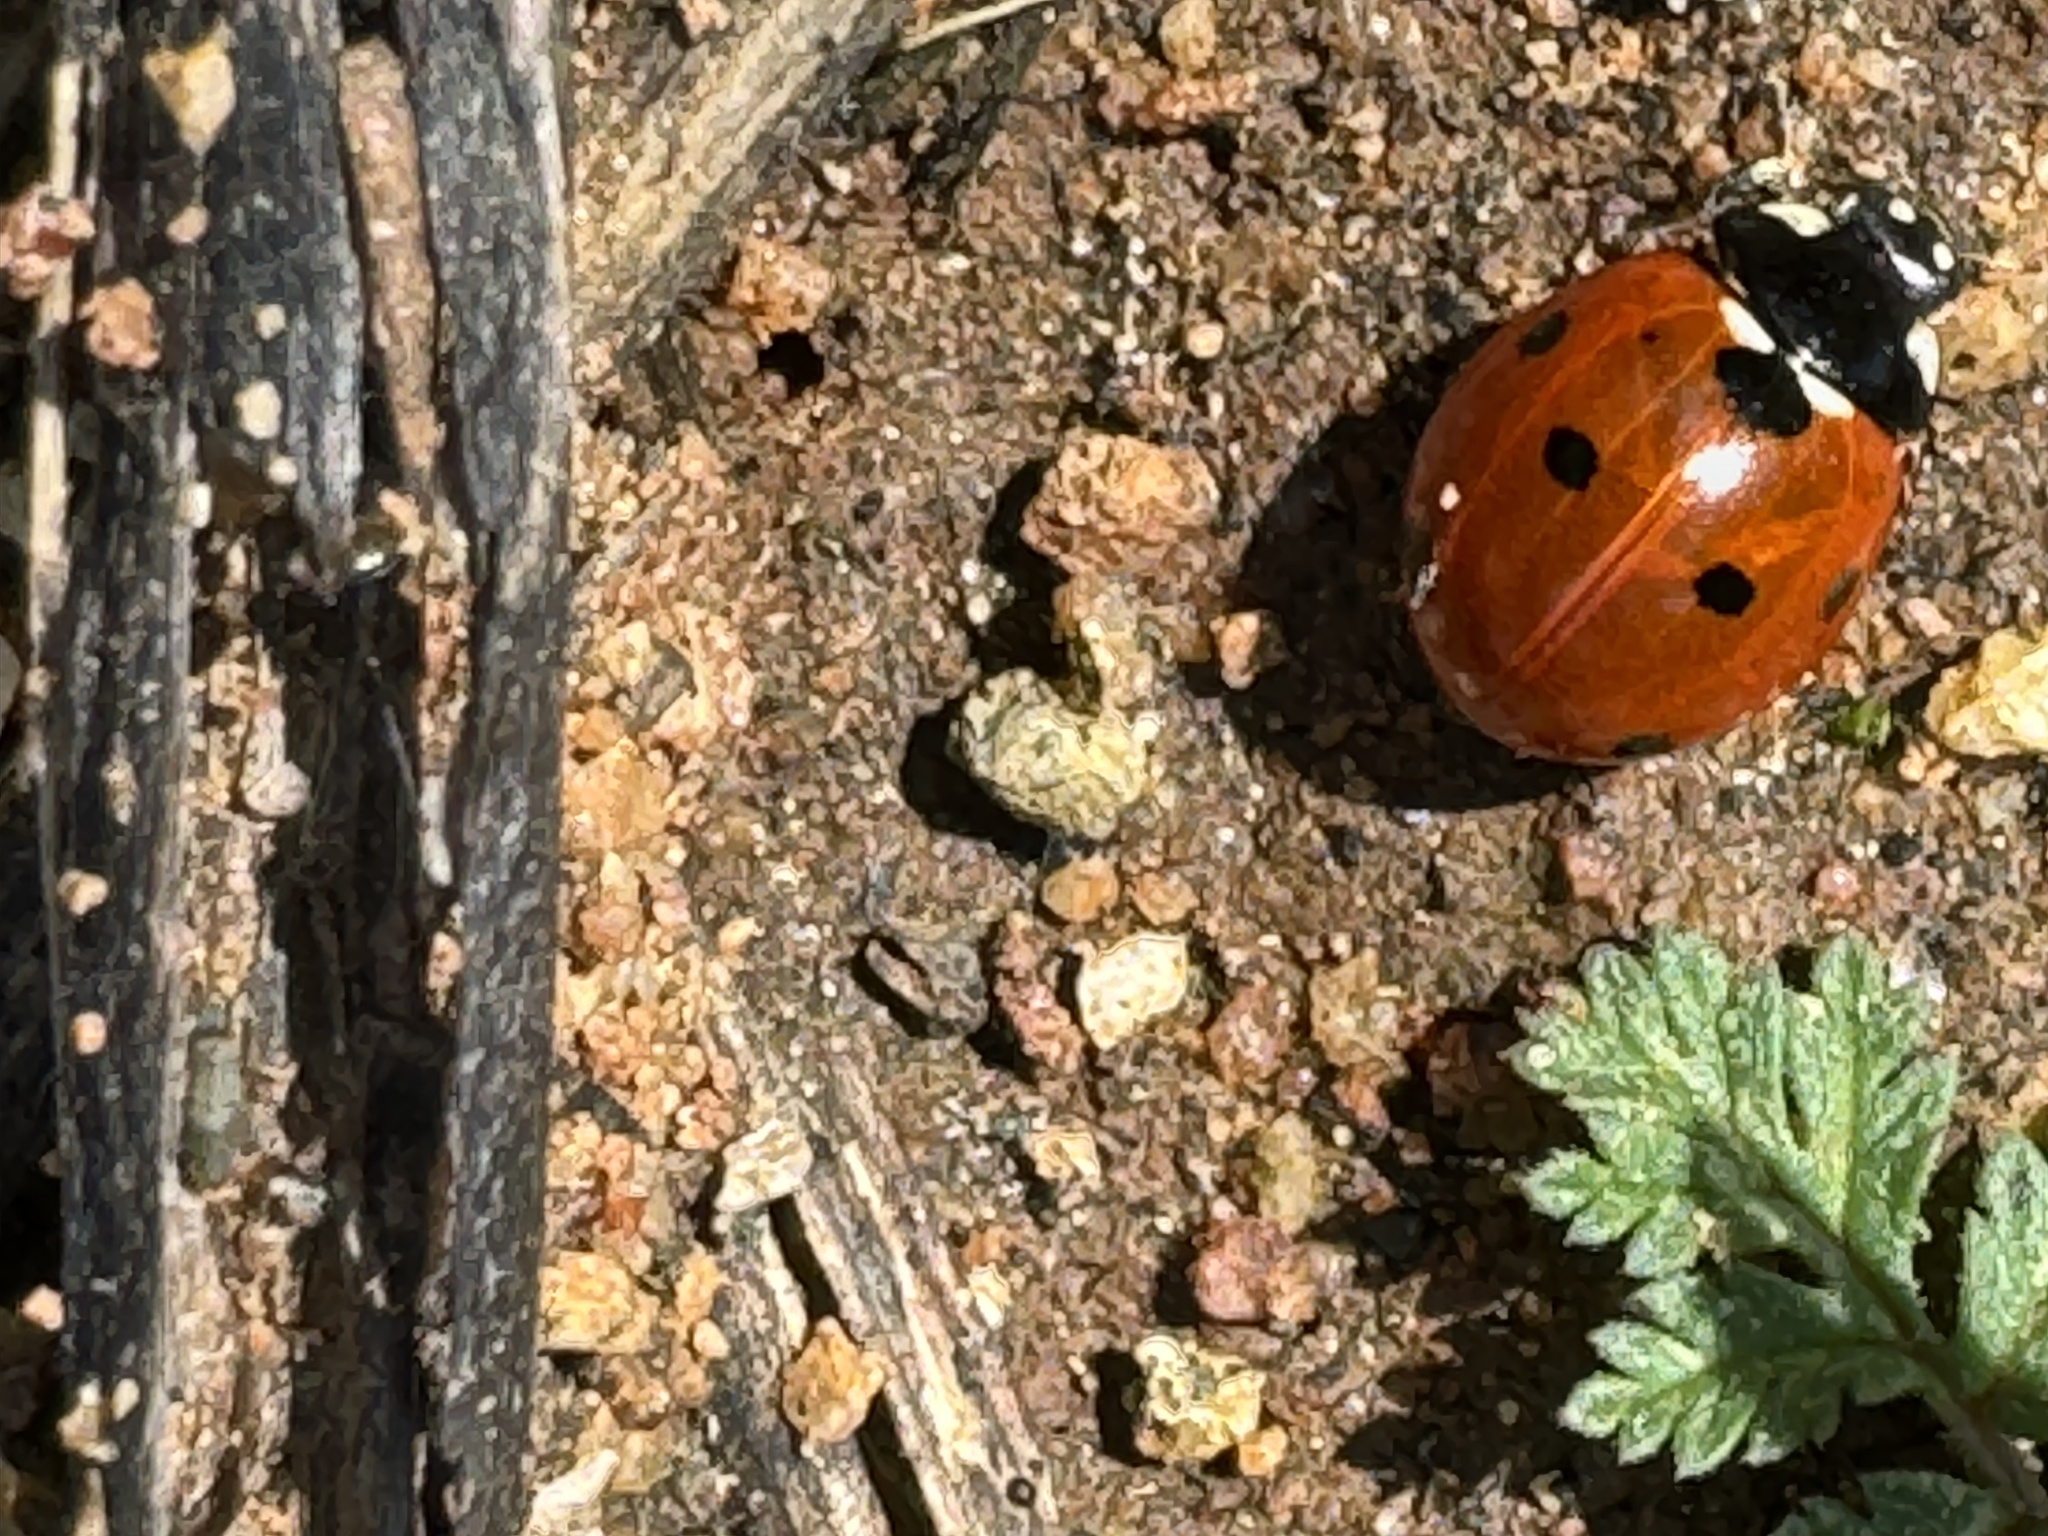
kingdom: Animalia
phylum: Arthropoda
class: Insecta
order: Coleoptera
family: Coccinellidae
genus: Coccinella
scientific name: Coccinella septempunctata
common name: Sevenspotted lady beetle
